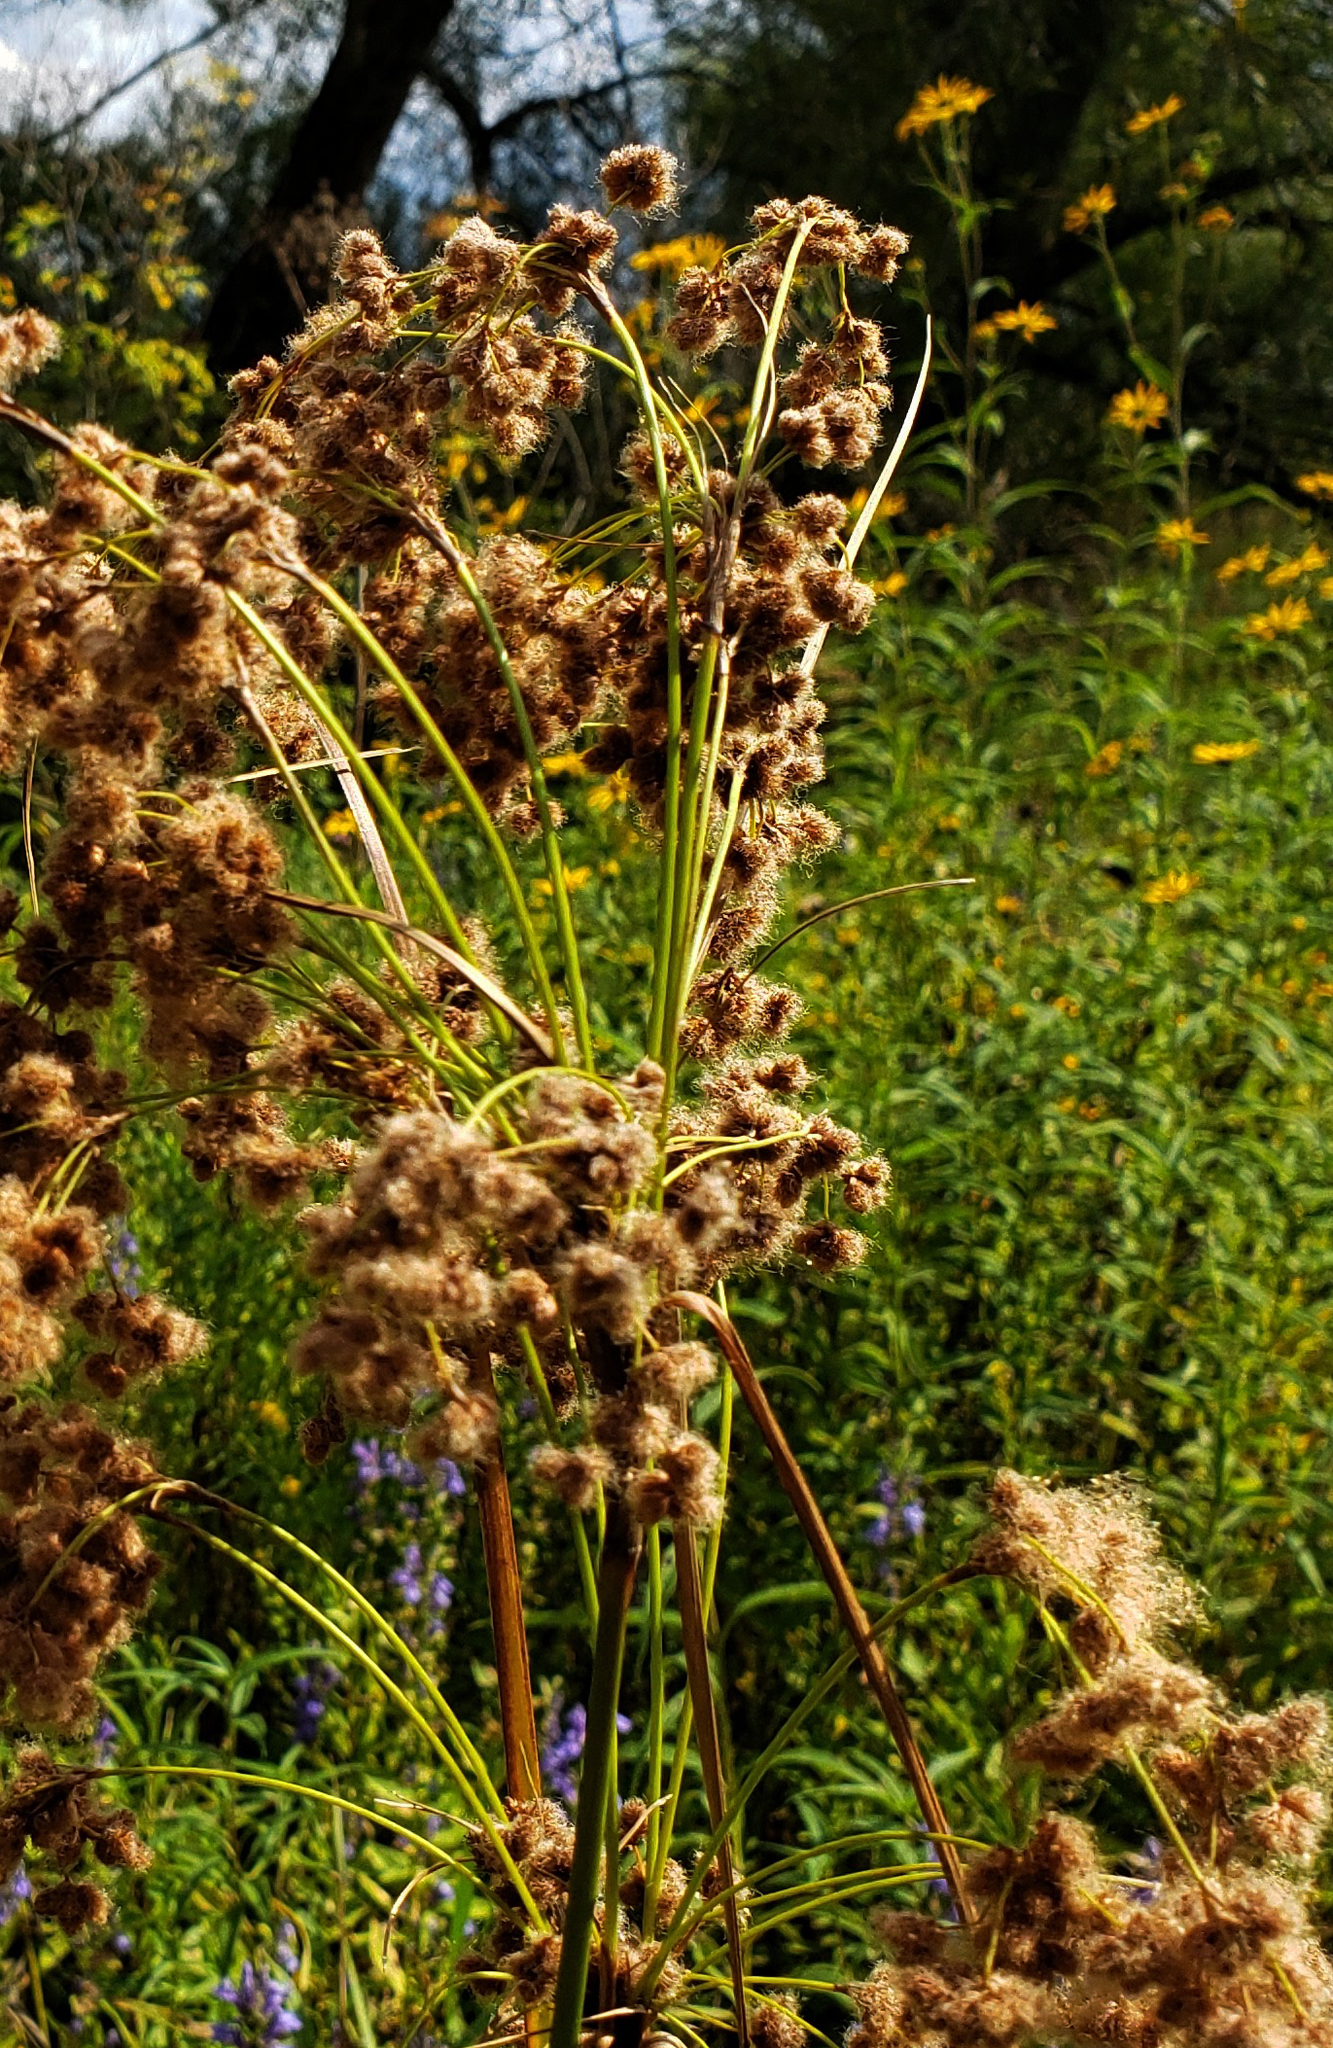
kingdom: Plantae
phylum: Tracheophyta
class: Liliopsida
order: Poales
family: Cyperaceae
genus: Scirpus
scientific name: Scirpus cyperinus
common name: Black-sheathed bulrush
